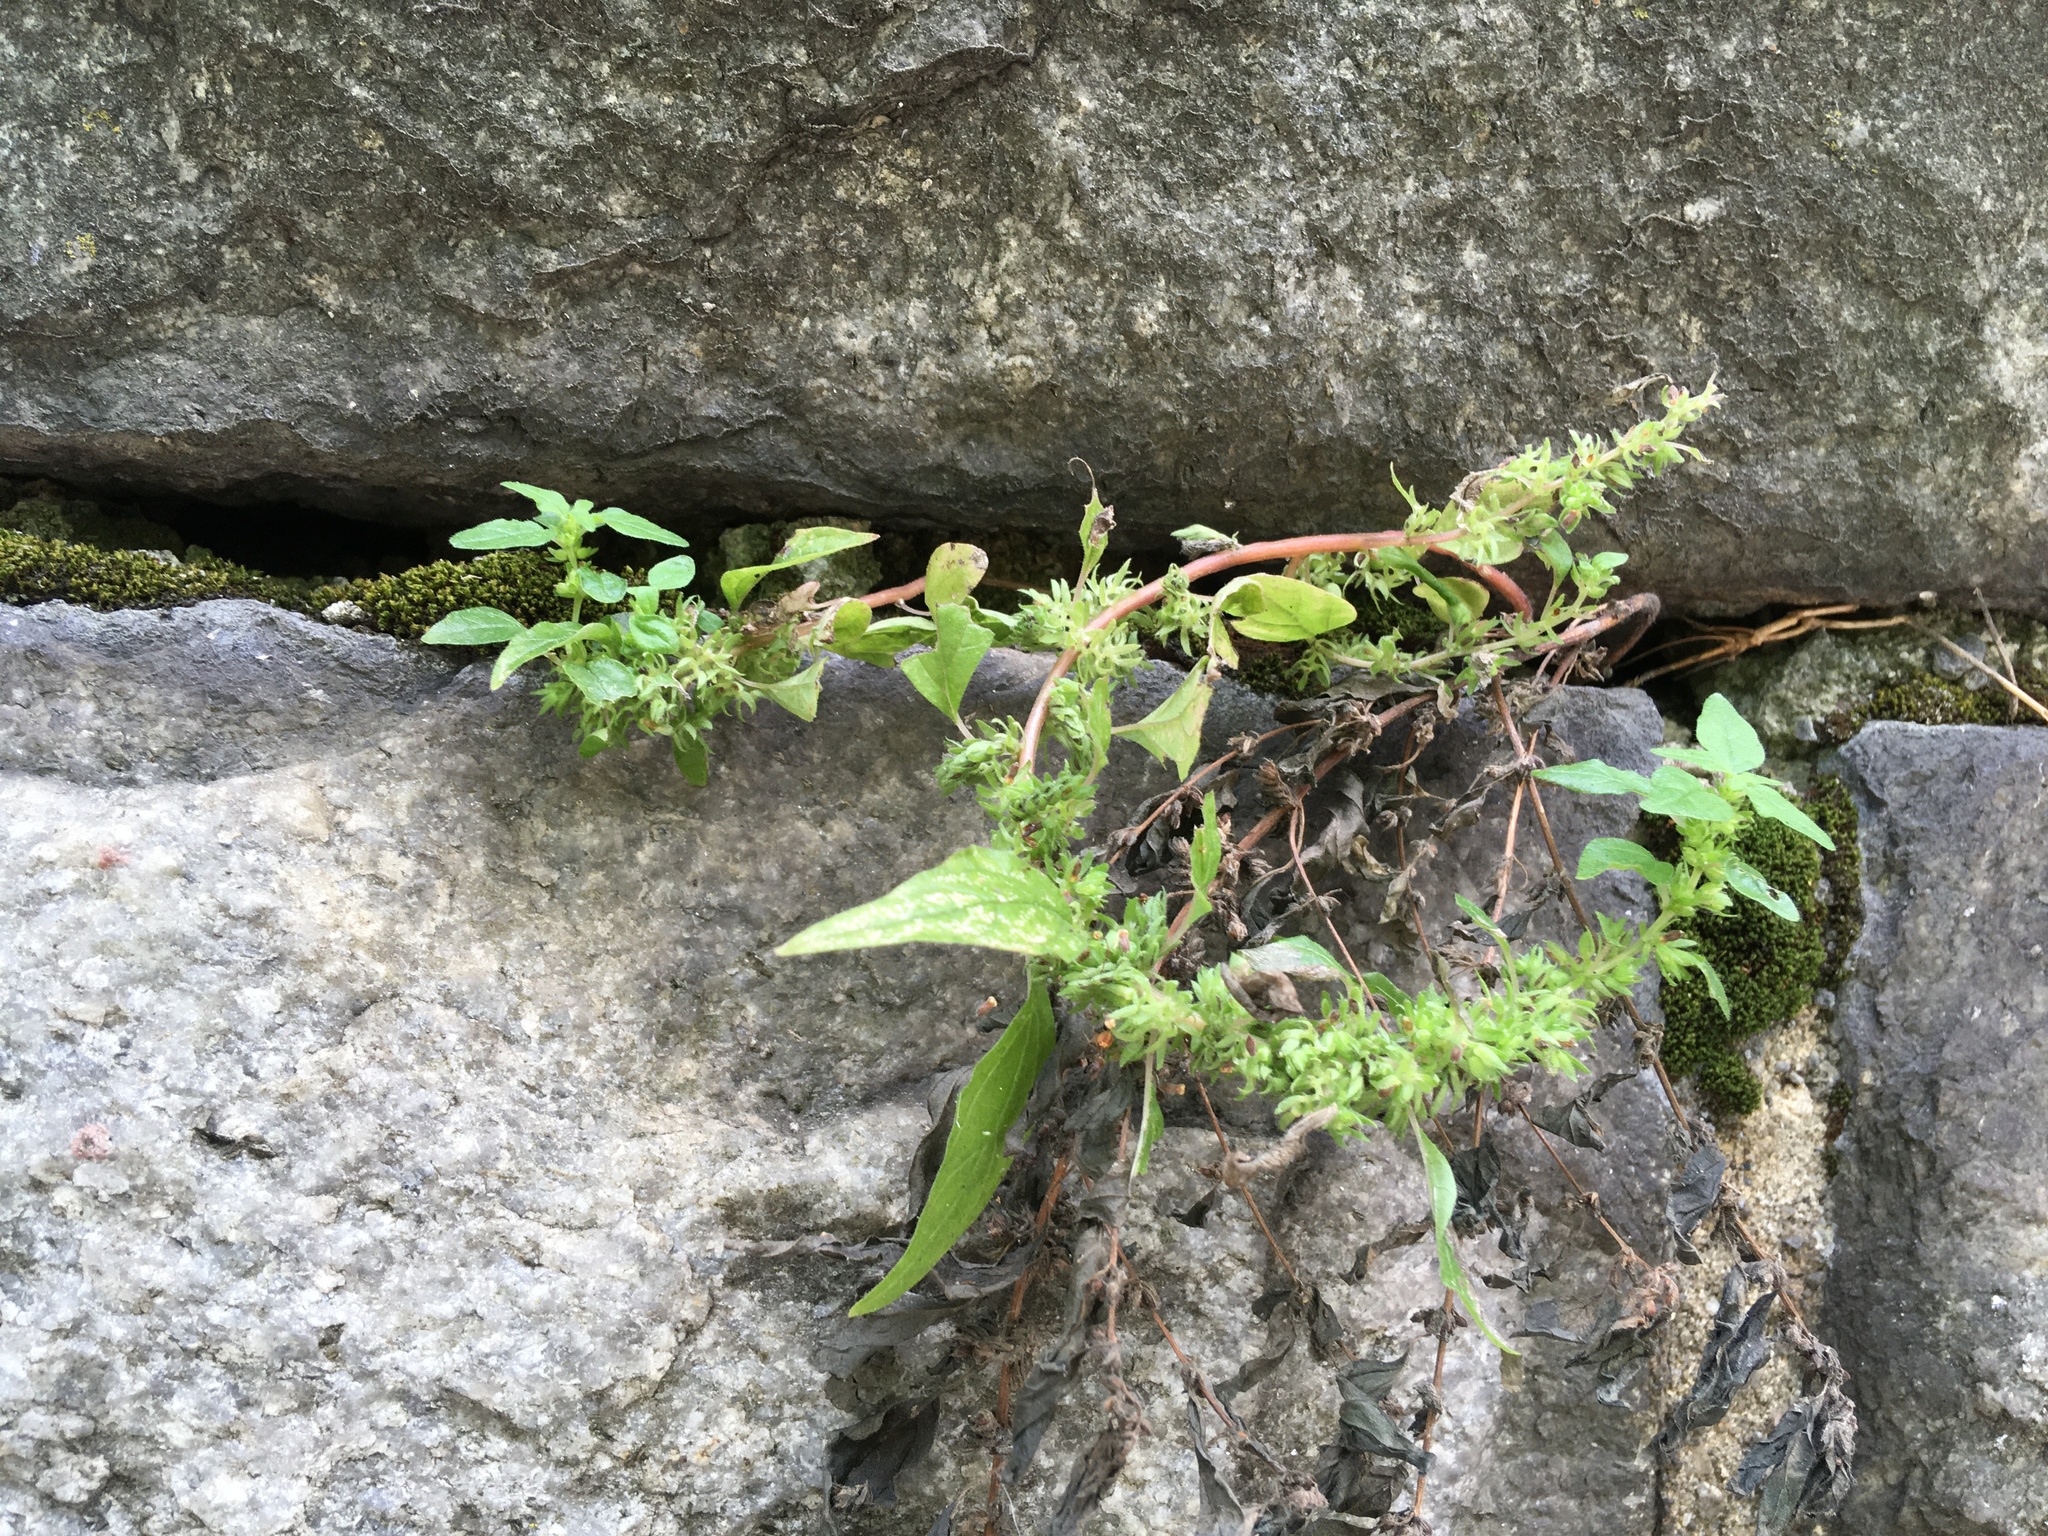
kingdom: Plantae
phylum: Tracheophyta
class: Magnoliopsida
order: Rosales
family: Urticaceae
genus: Parietaria
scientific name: Parietaria pensylvanica
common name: Pennsylvania pellitory
